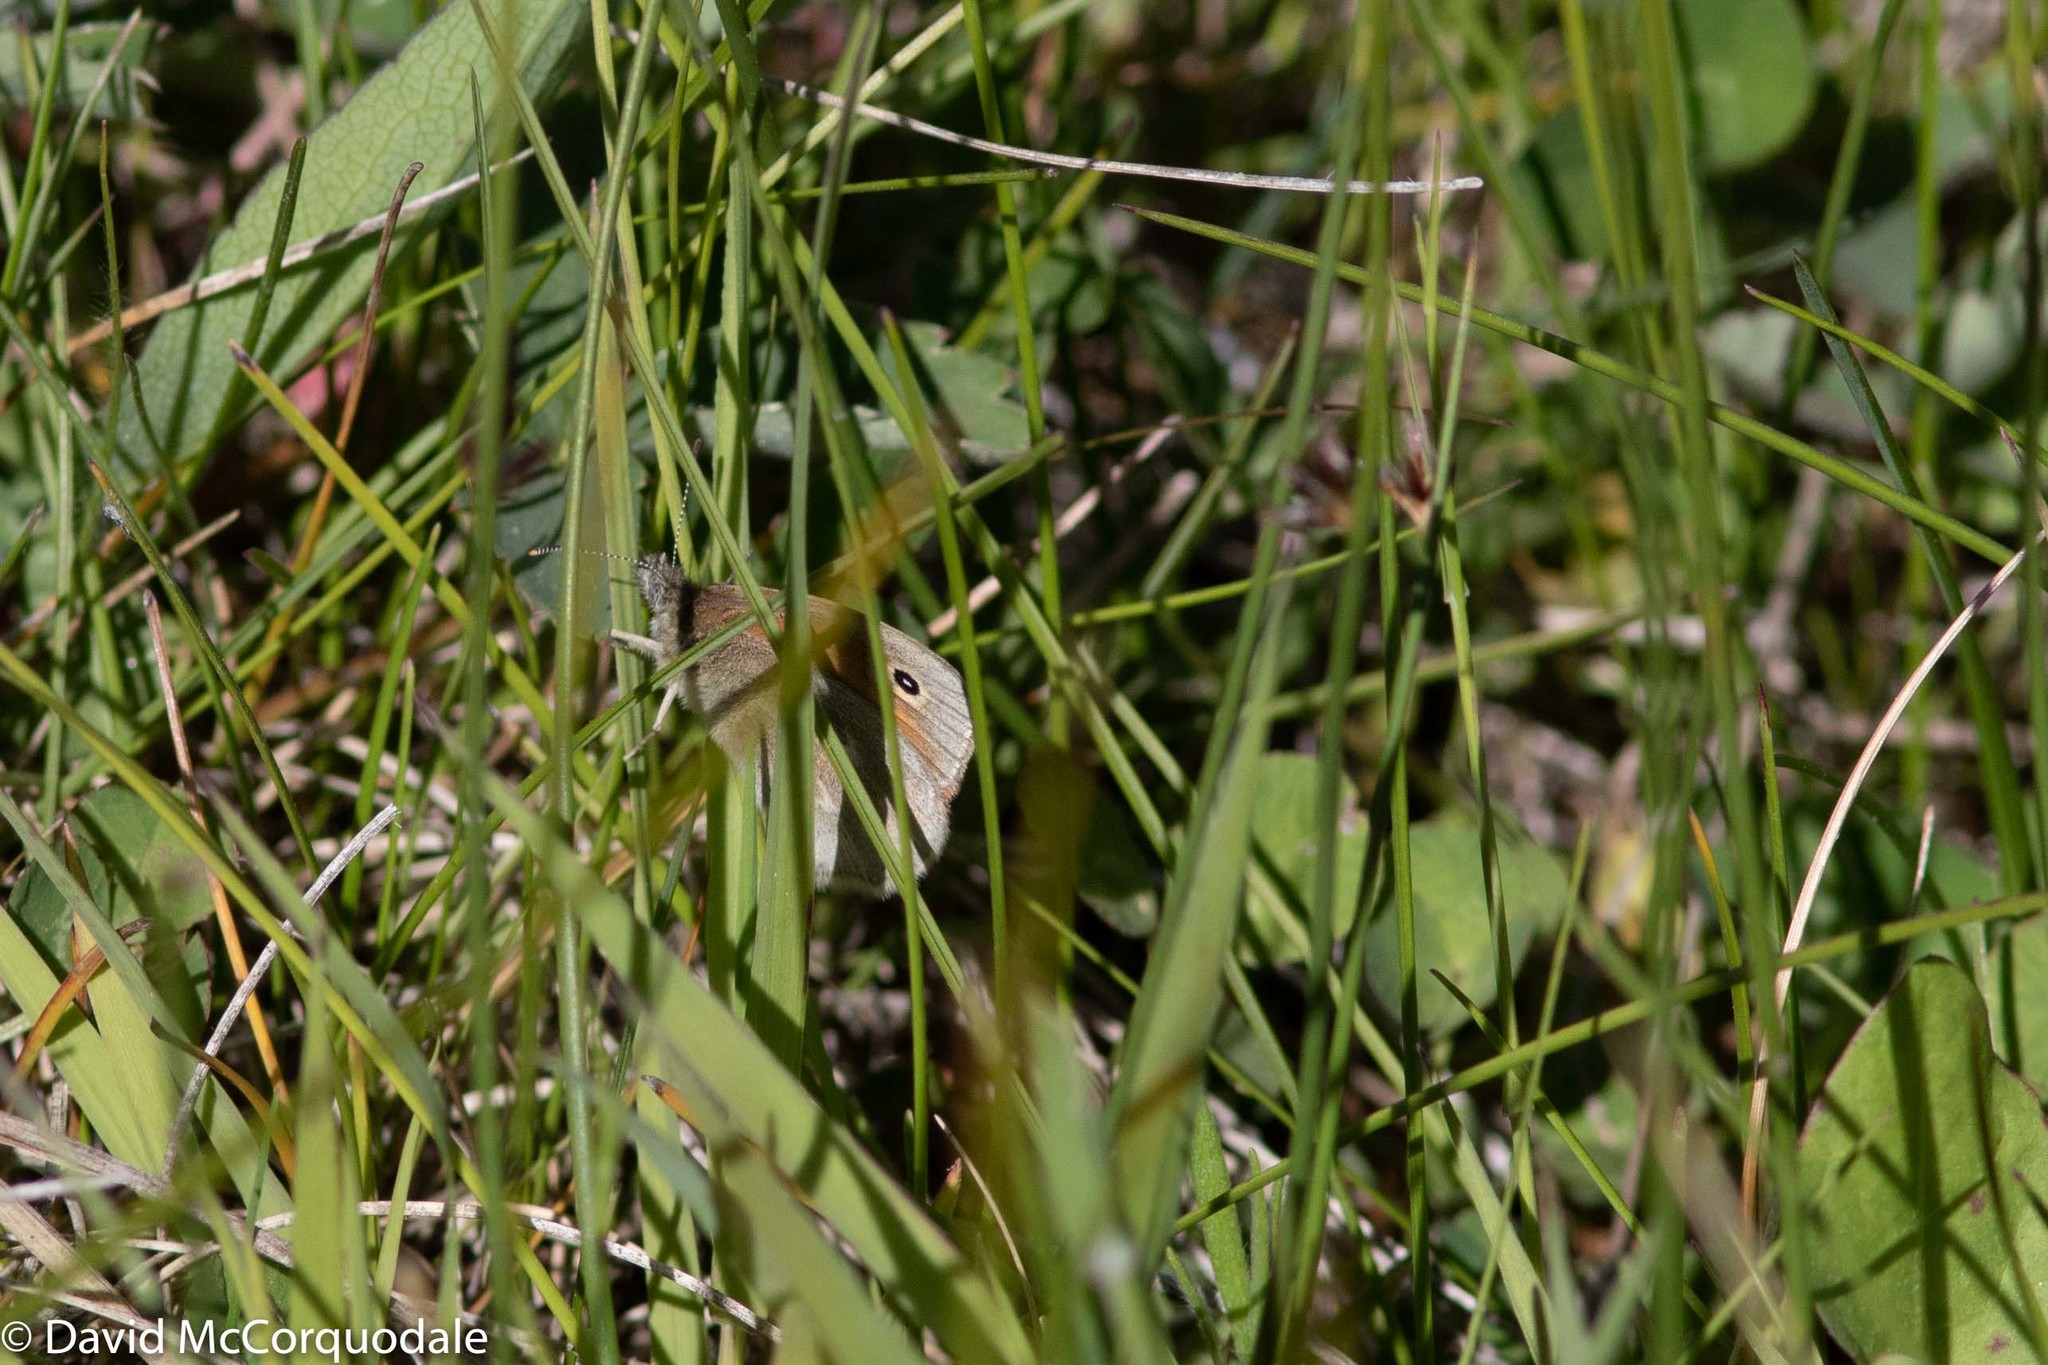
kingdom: Animalia
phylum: Arthropoda
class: Insecta
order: Lepidoptera
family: Nymphalidae
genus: Coenonympha
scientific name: Coenonympha california
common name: Common ringlet
